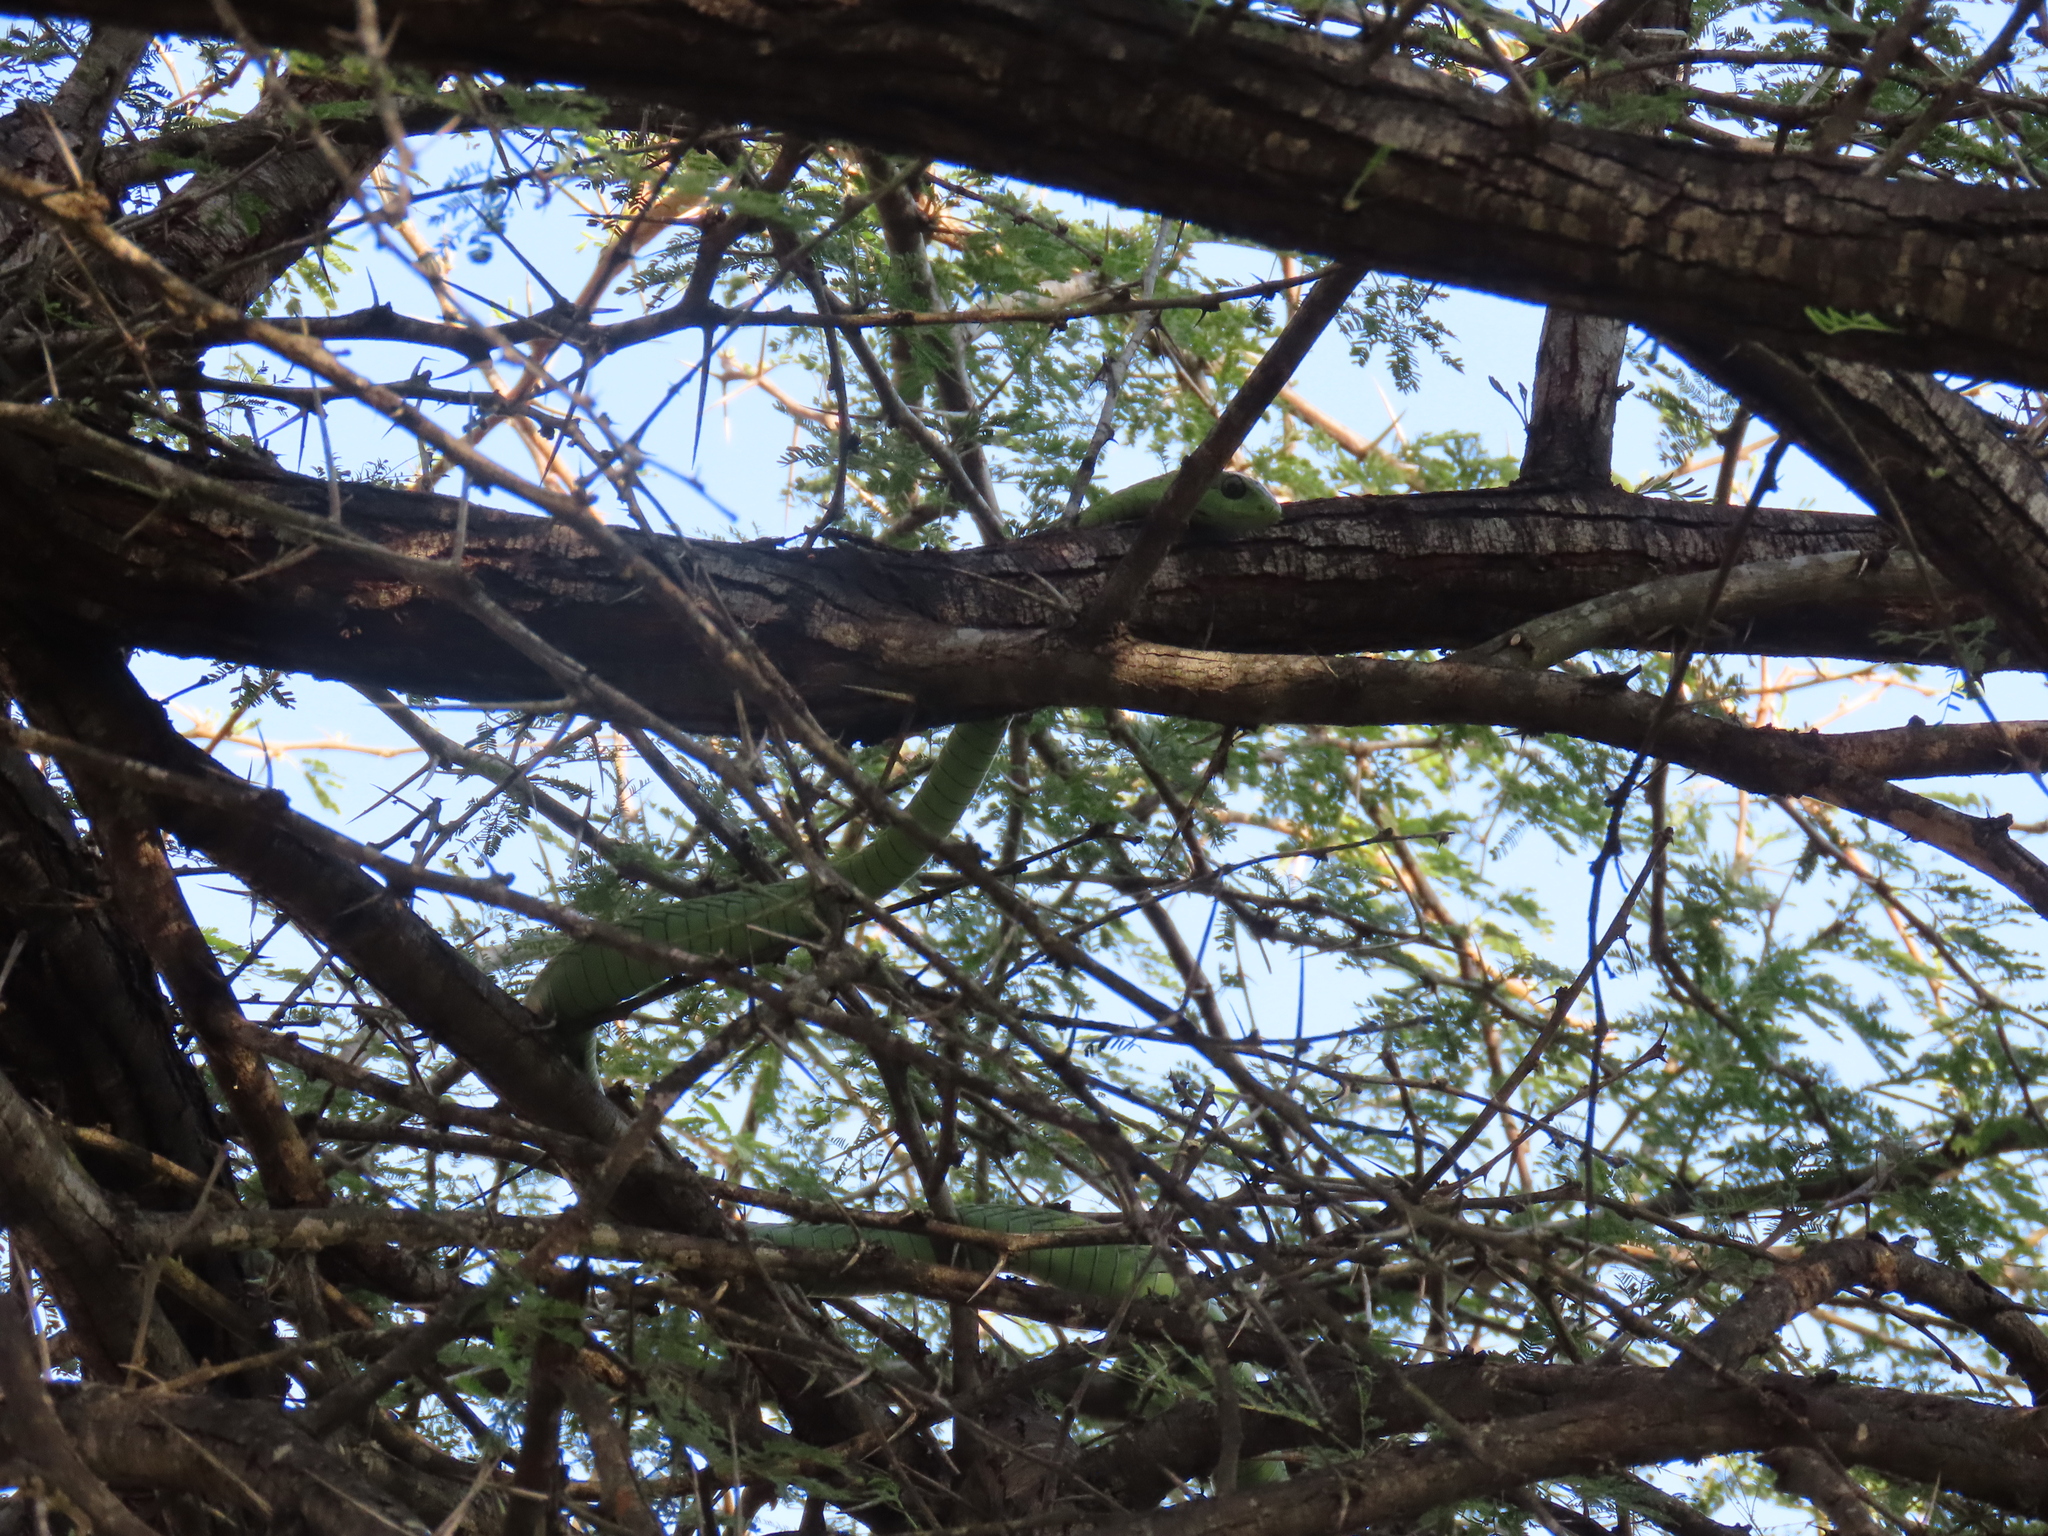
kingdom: Animalia
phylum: Chordata
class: Squamata
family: Colubridae
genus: Dispholidus
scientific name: Dispholidus typus
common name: Boomslang
